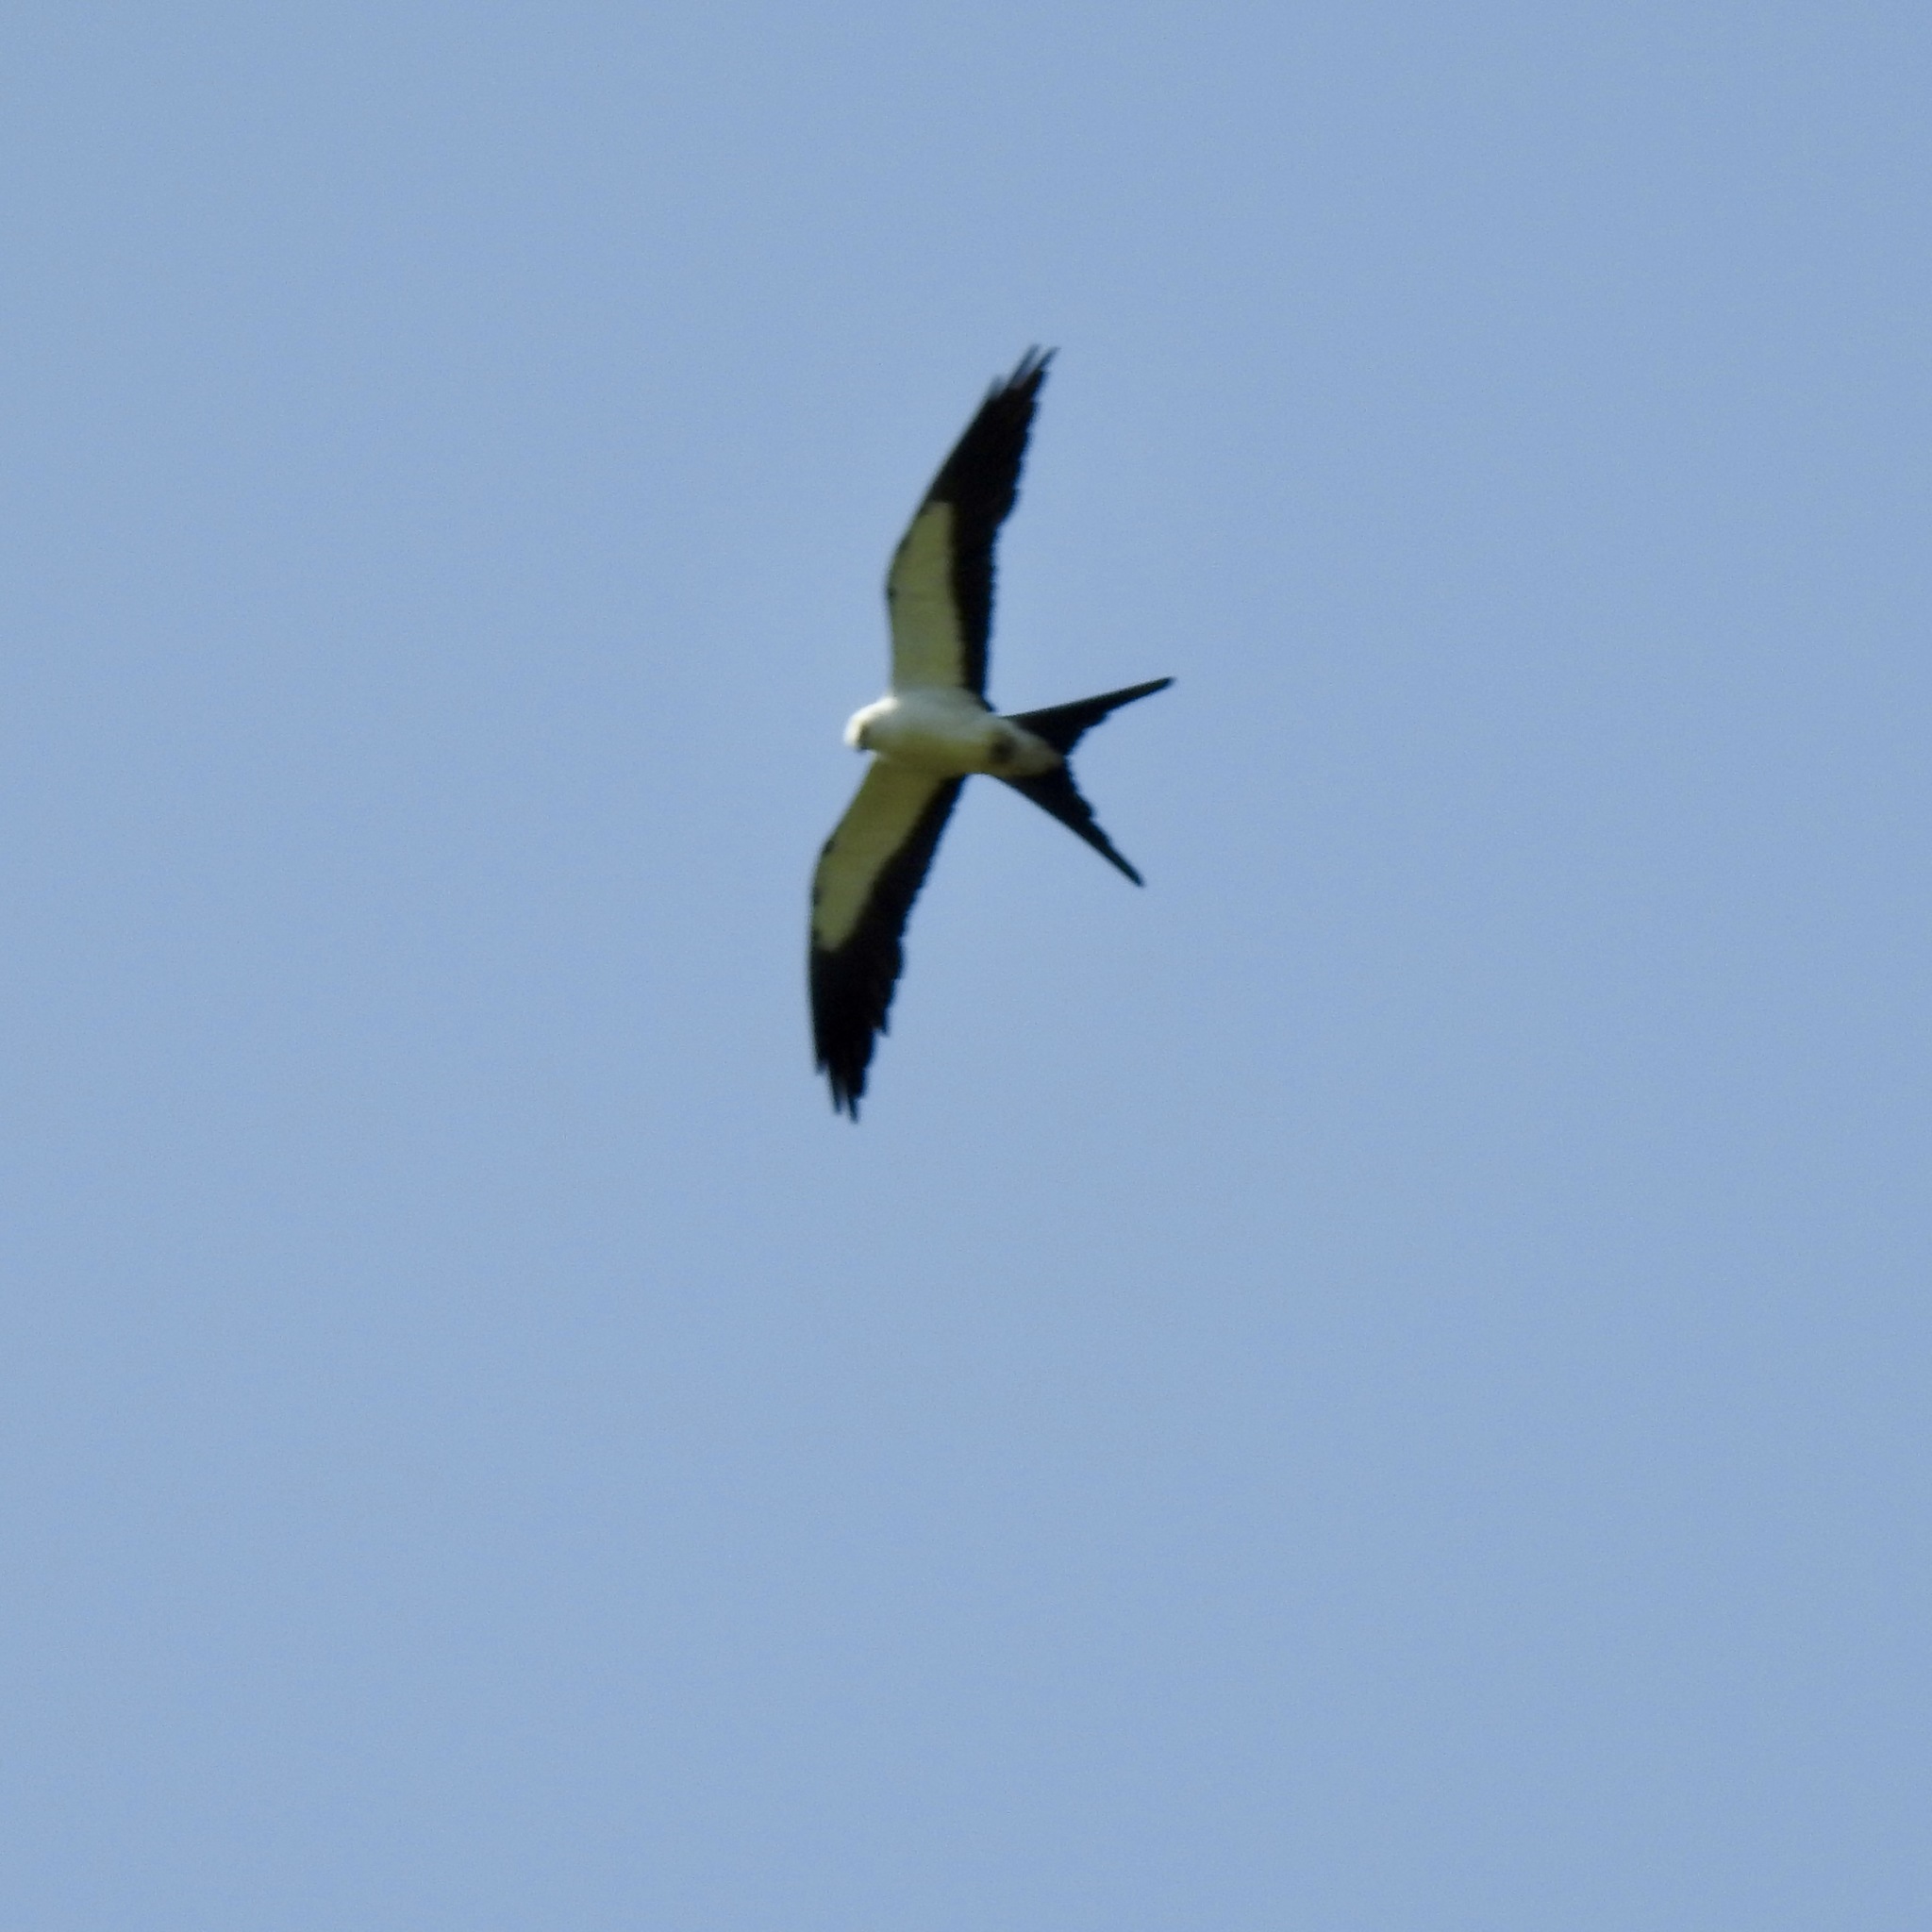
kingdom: Animalia
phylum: Chordata
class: Aves
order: Accipitriformes
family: Accipitridae
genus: Elanoides
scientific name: Elanoides forficatus
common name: Swallow-tailed kite
